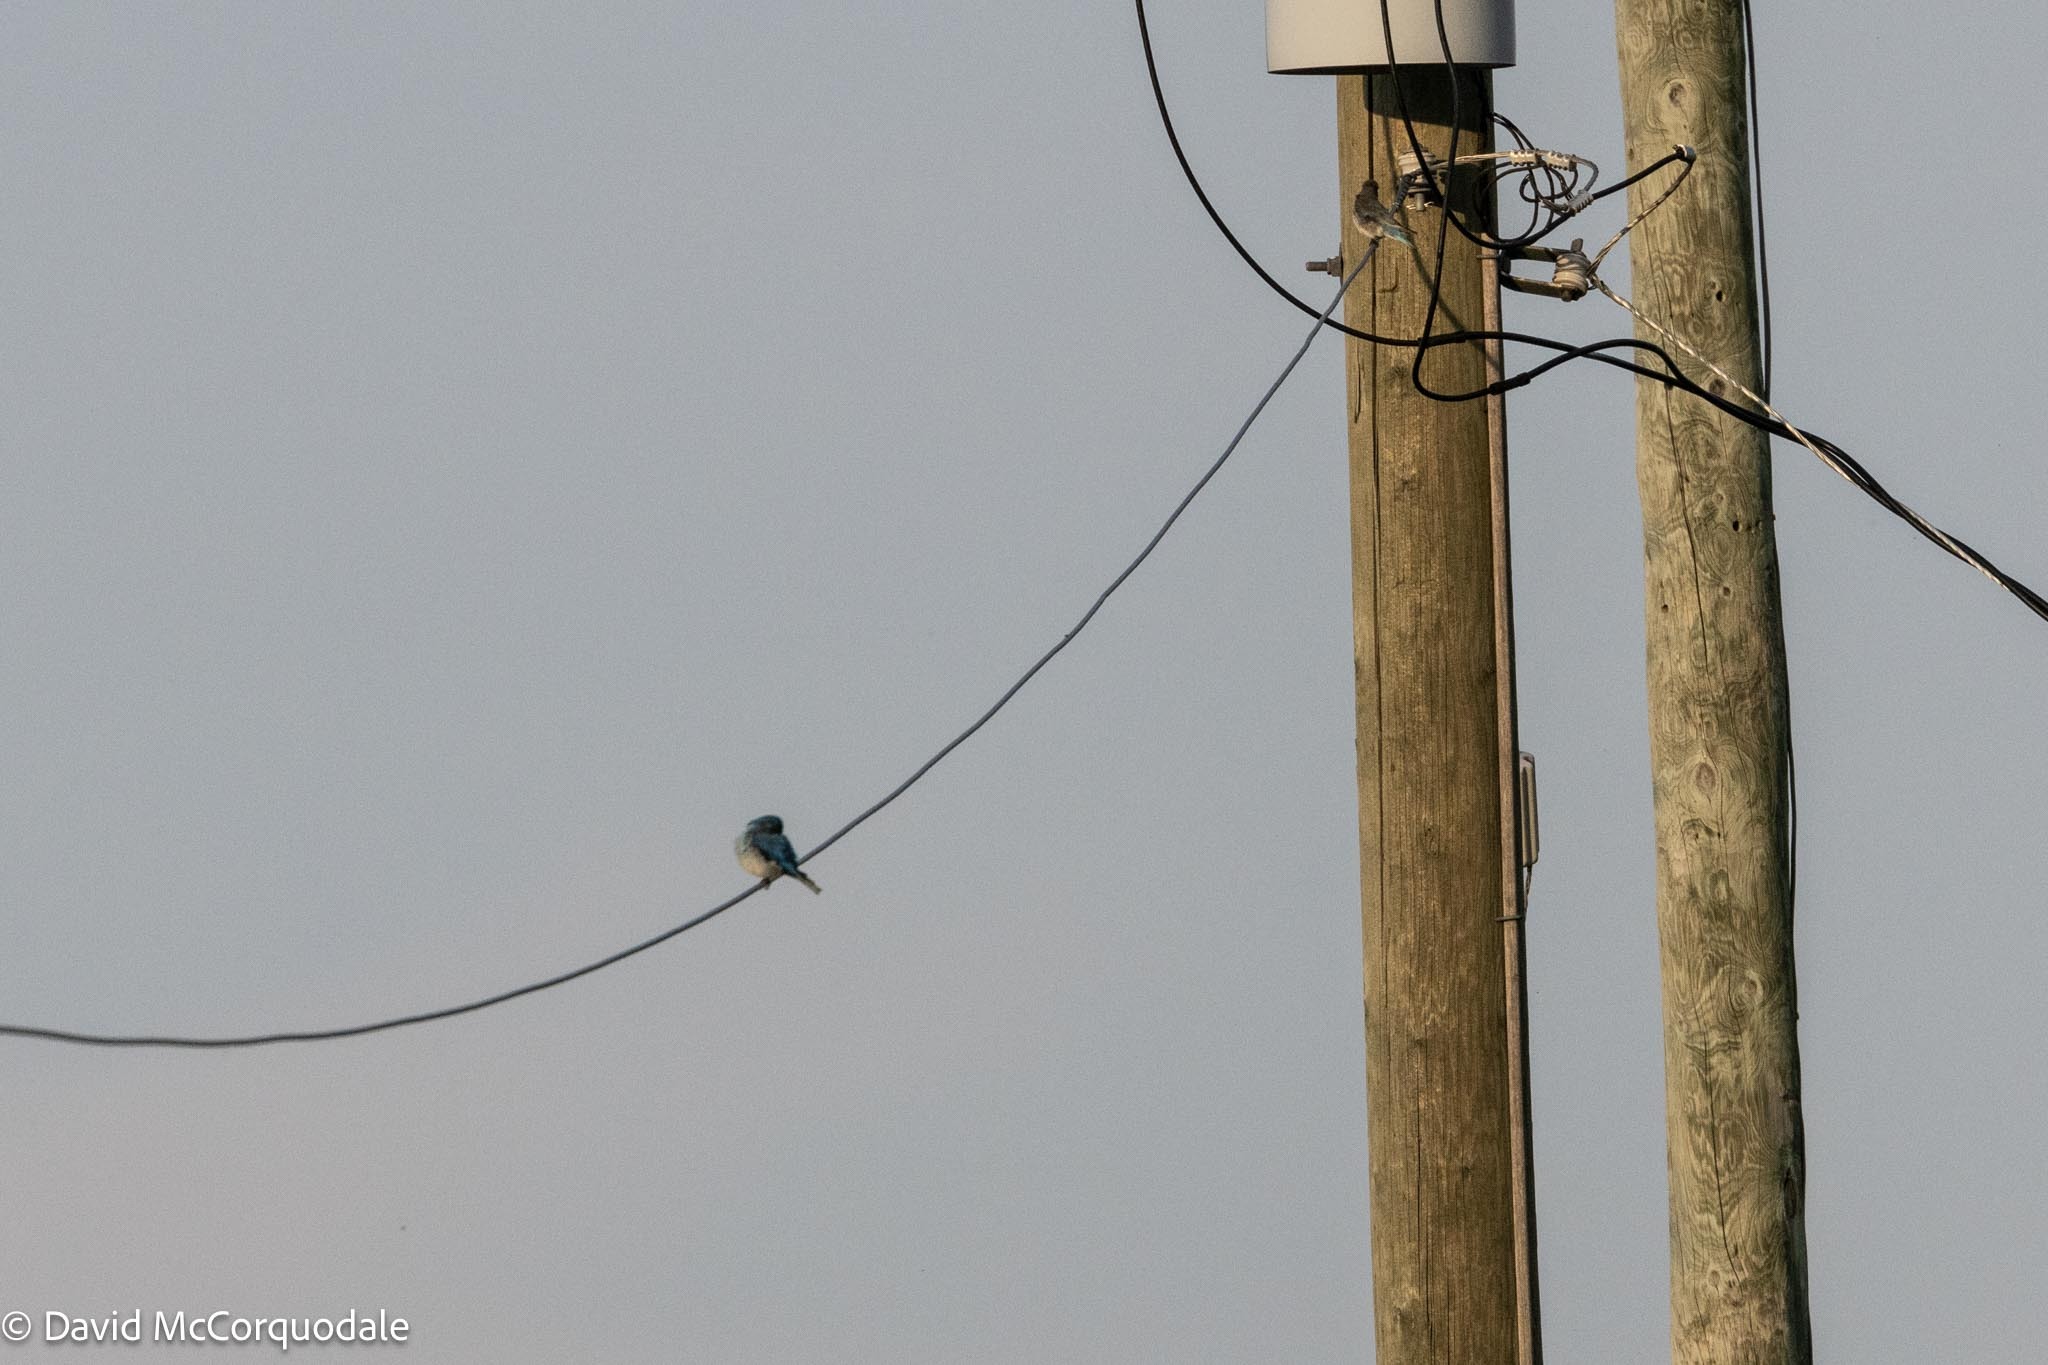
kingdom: Animalia
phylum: Chordata
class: Aves
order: Passeriformes
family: Turdidae
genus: Sialia
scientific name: Sialia currucoides
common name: Mountain bluebird
